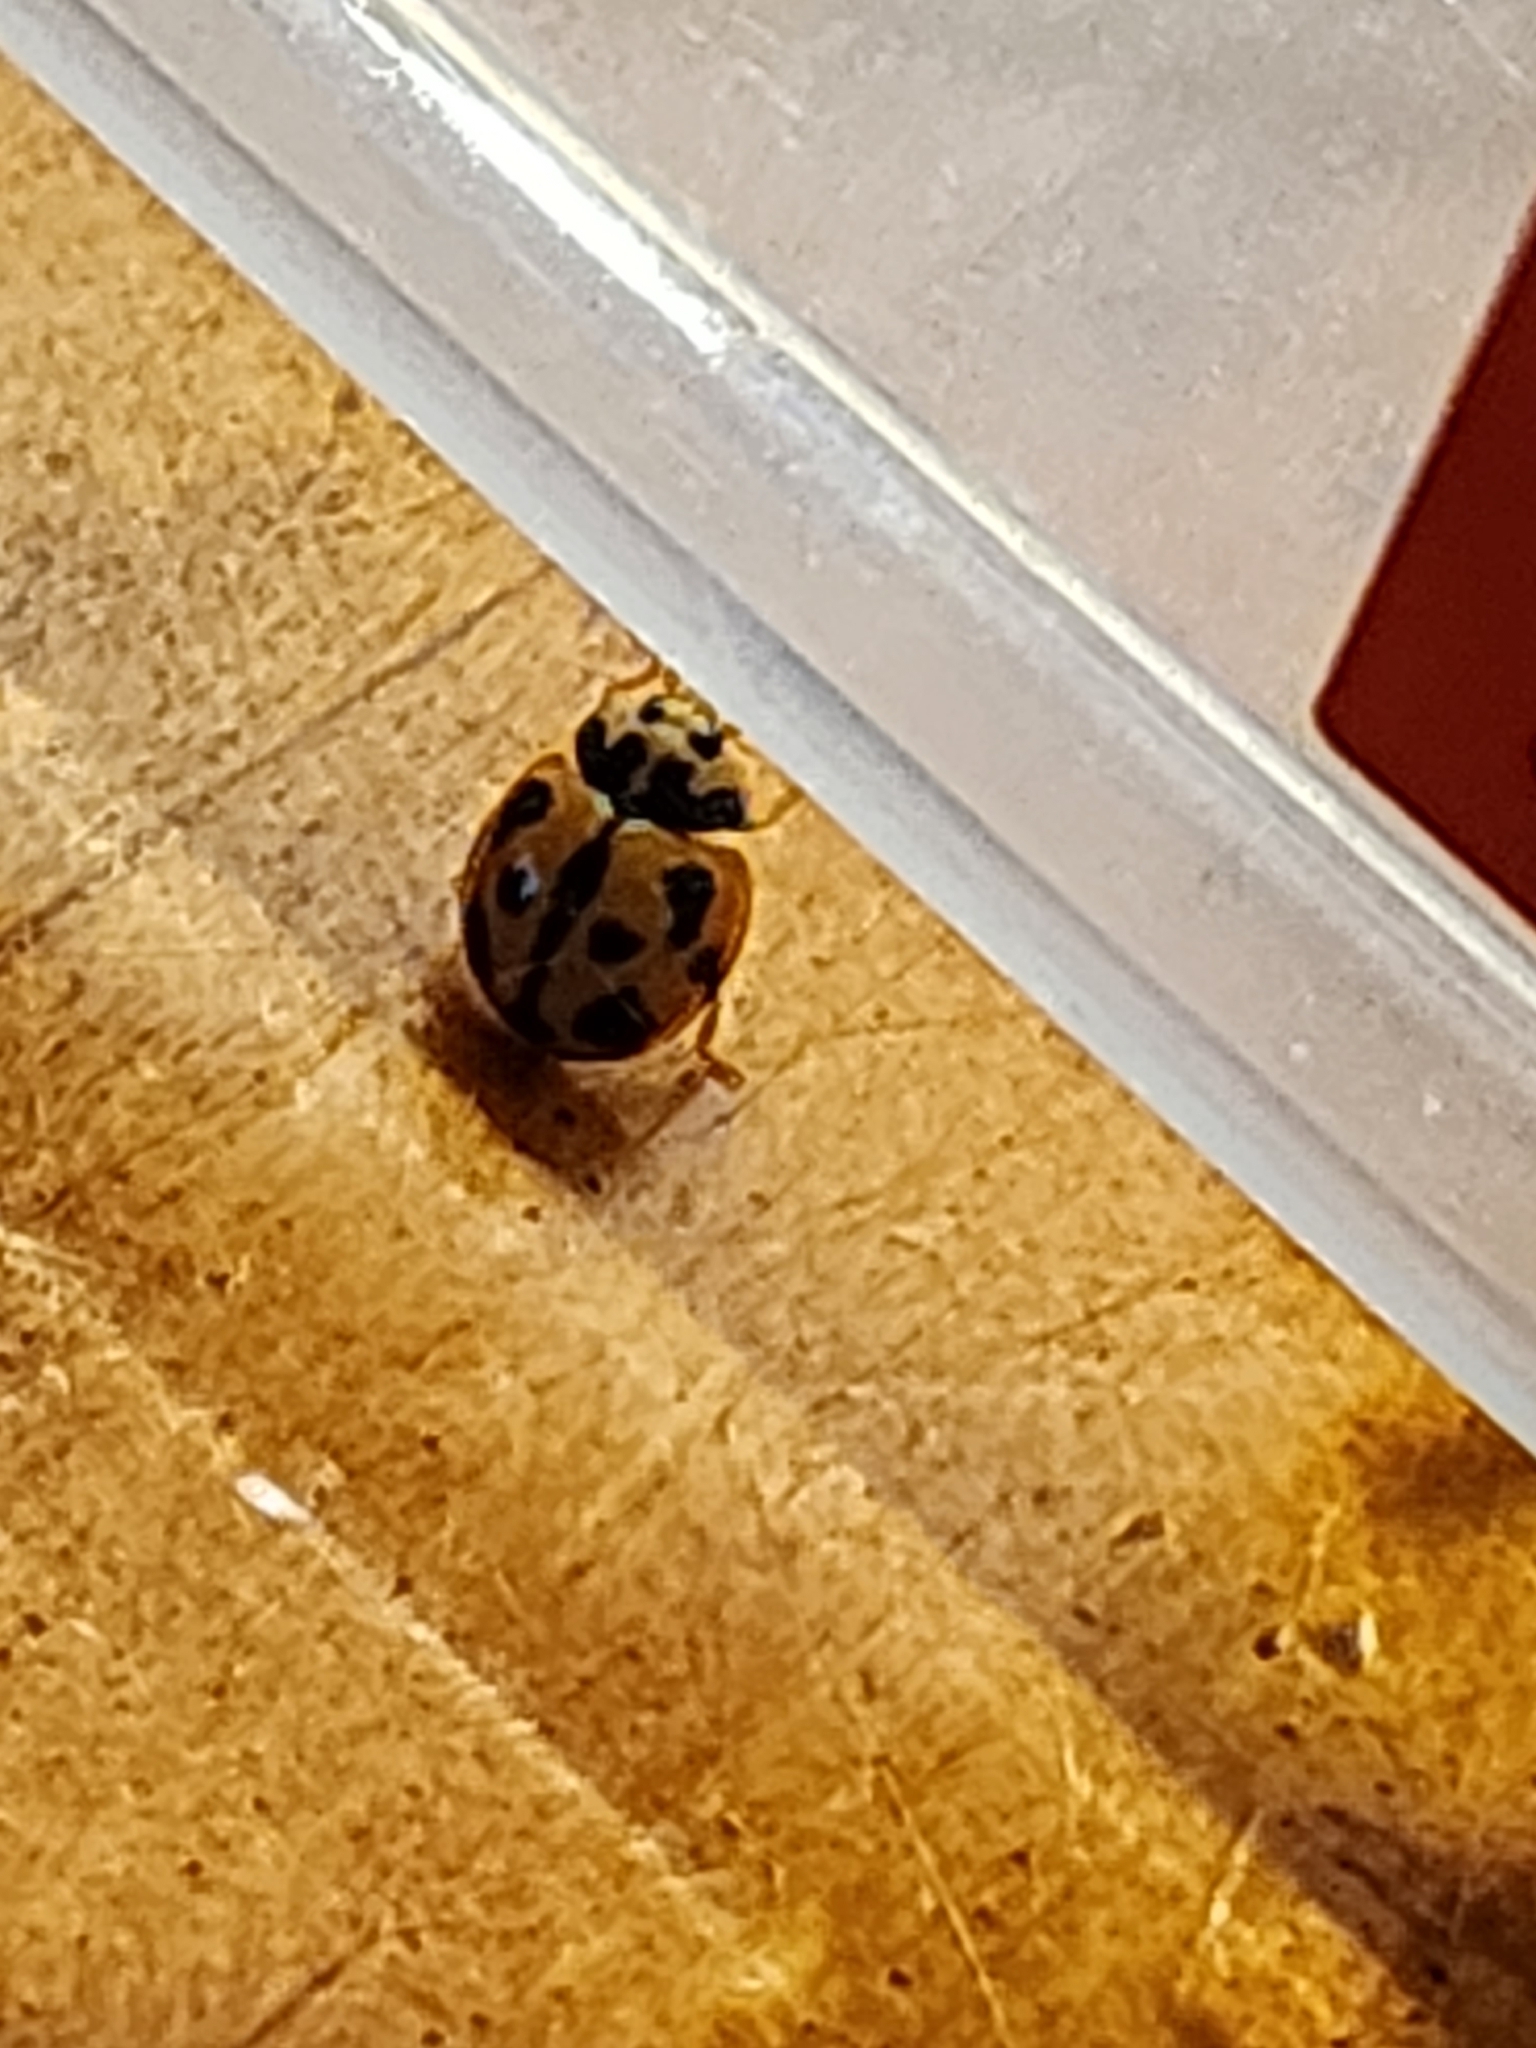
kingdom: Animalia
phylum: Arthropoda
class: Insecta
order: Coleoptera
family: Coccinellidae
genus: Coelophora
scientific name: Coelophora inaequalis
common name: Common australian lady beetle
